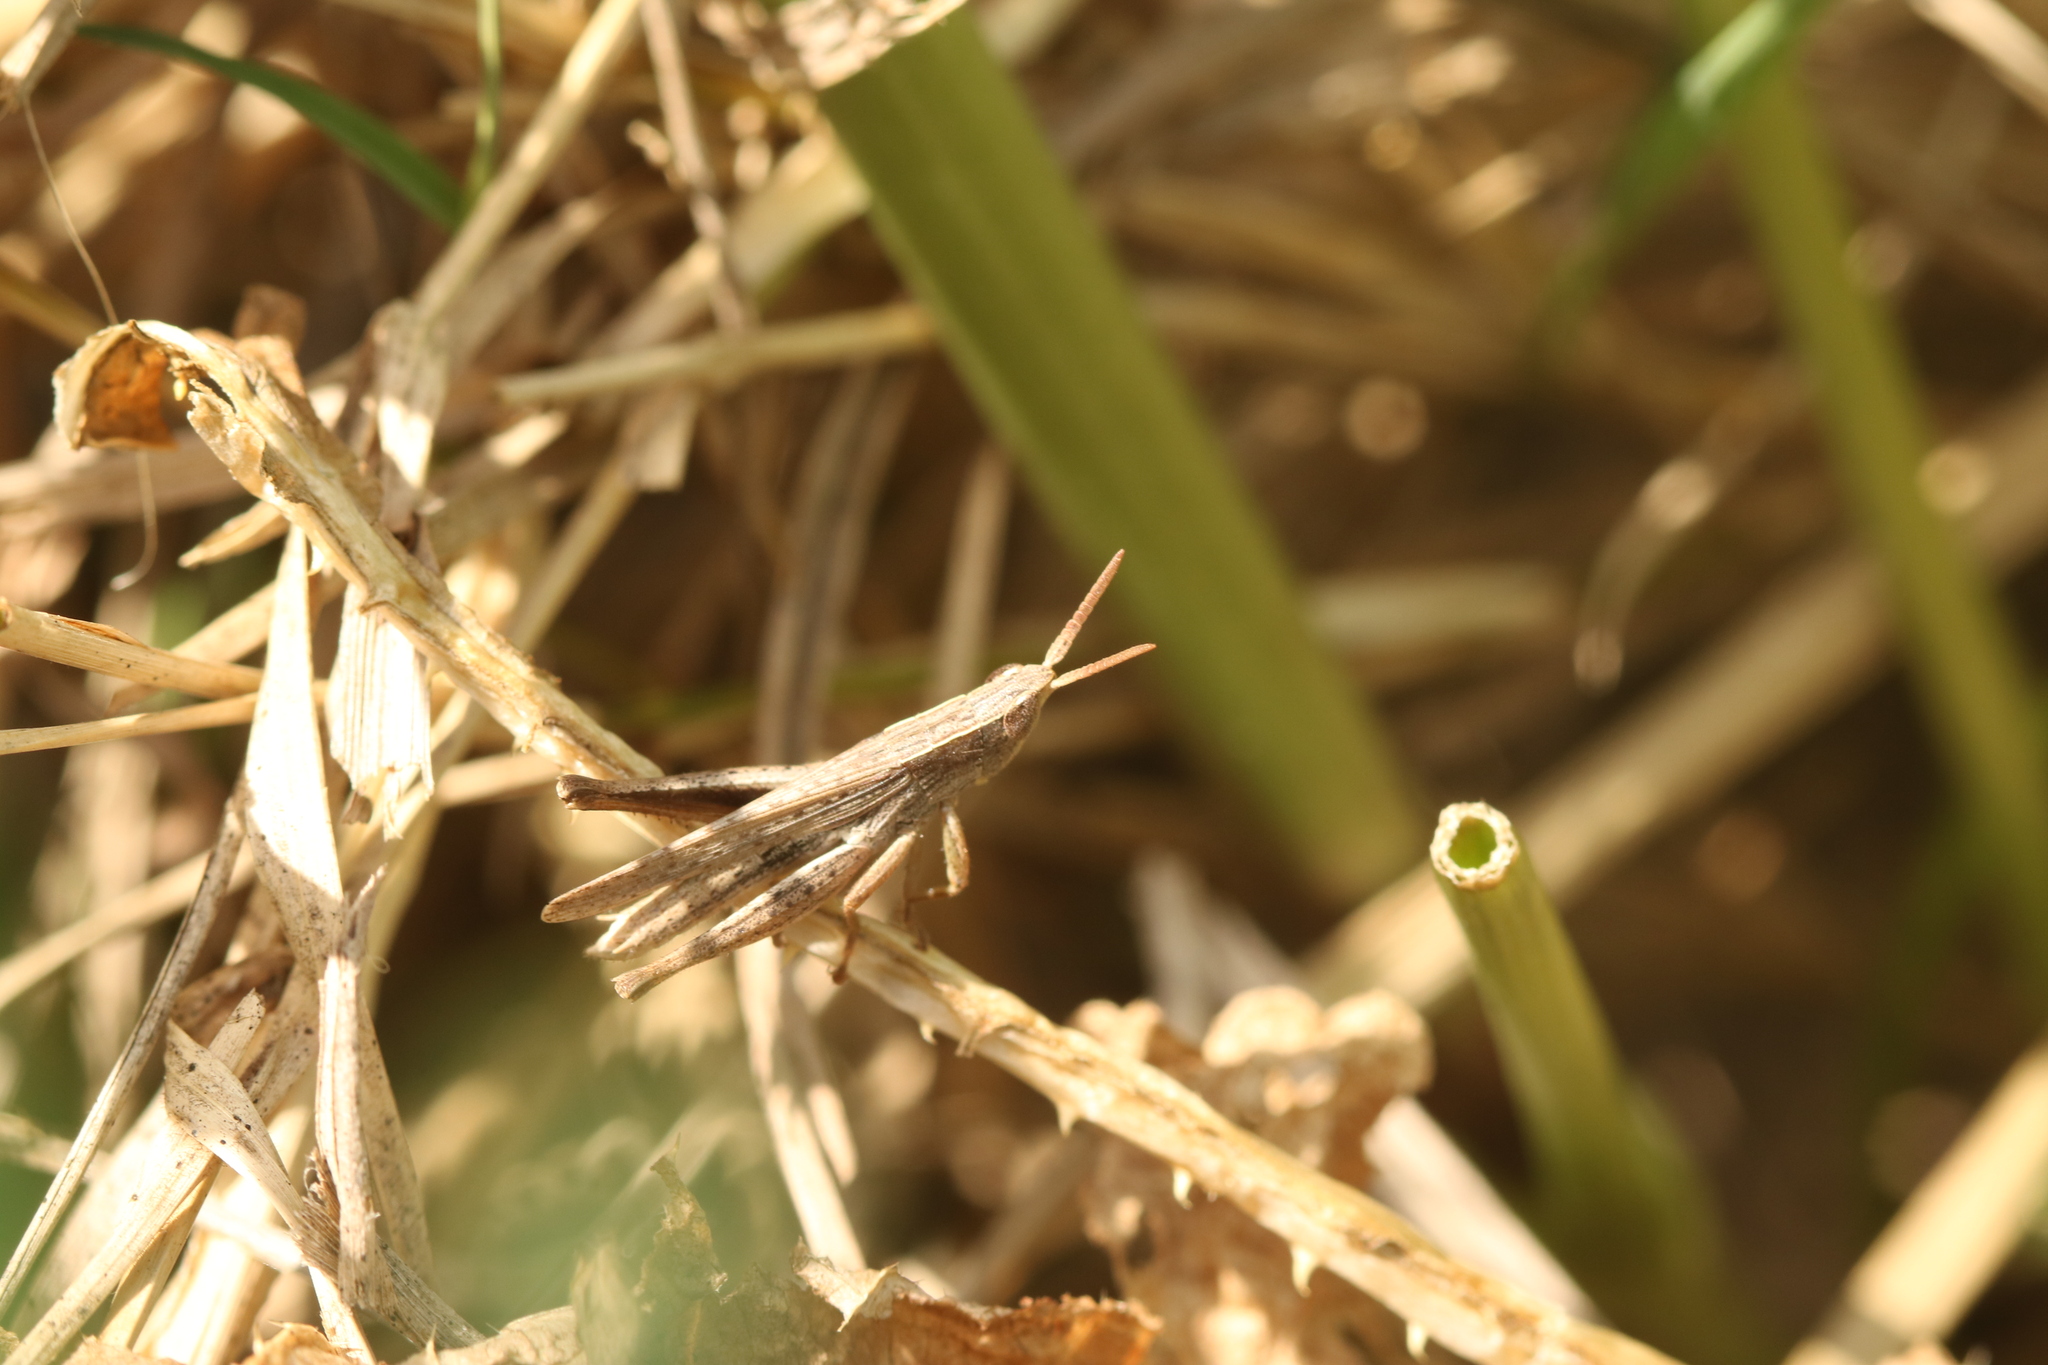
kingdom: Animalia
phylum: Arthropoda
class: Insecta
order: Orthoptera
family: Acrididae
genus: Laplatacris
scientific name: Laplatacris dispar
